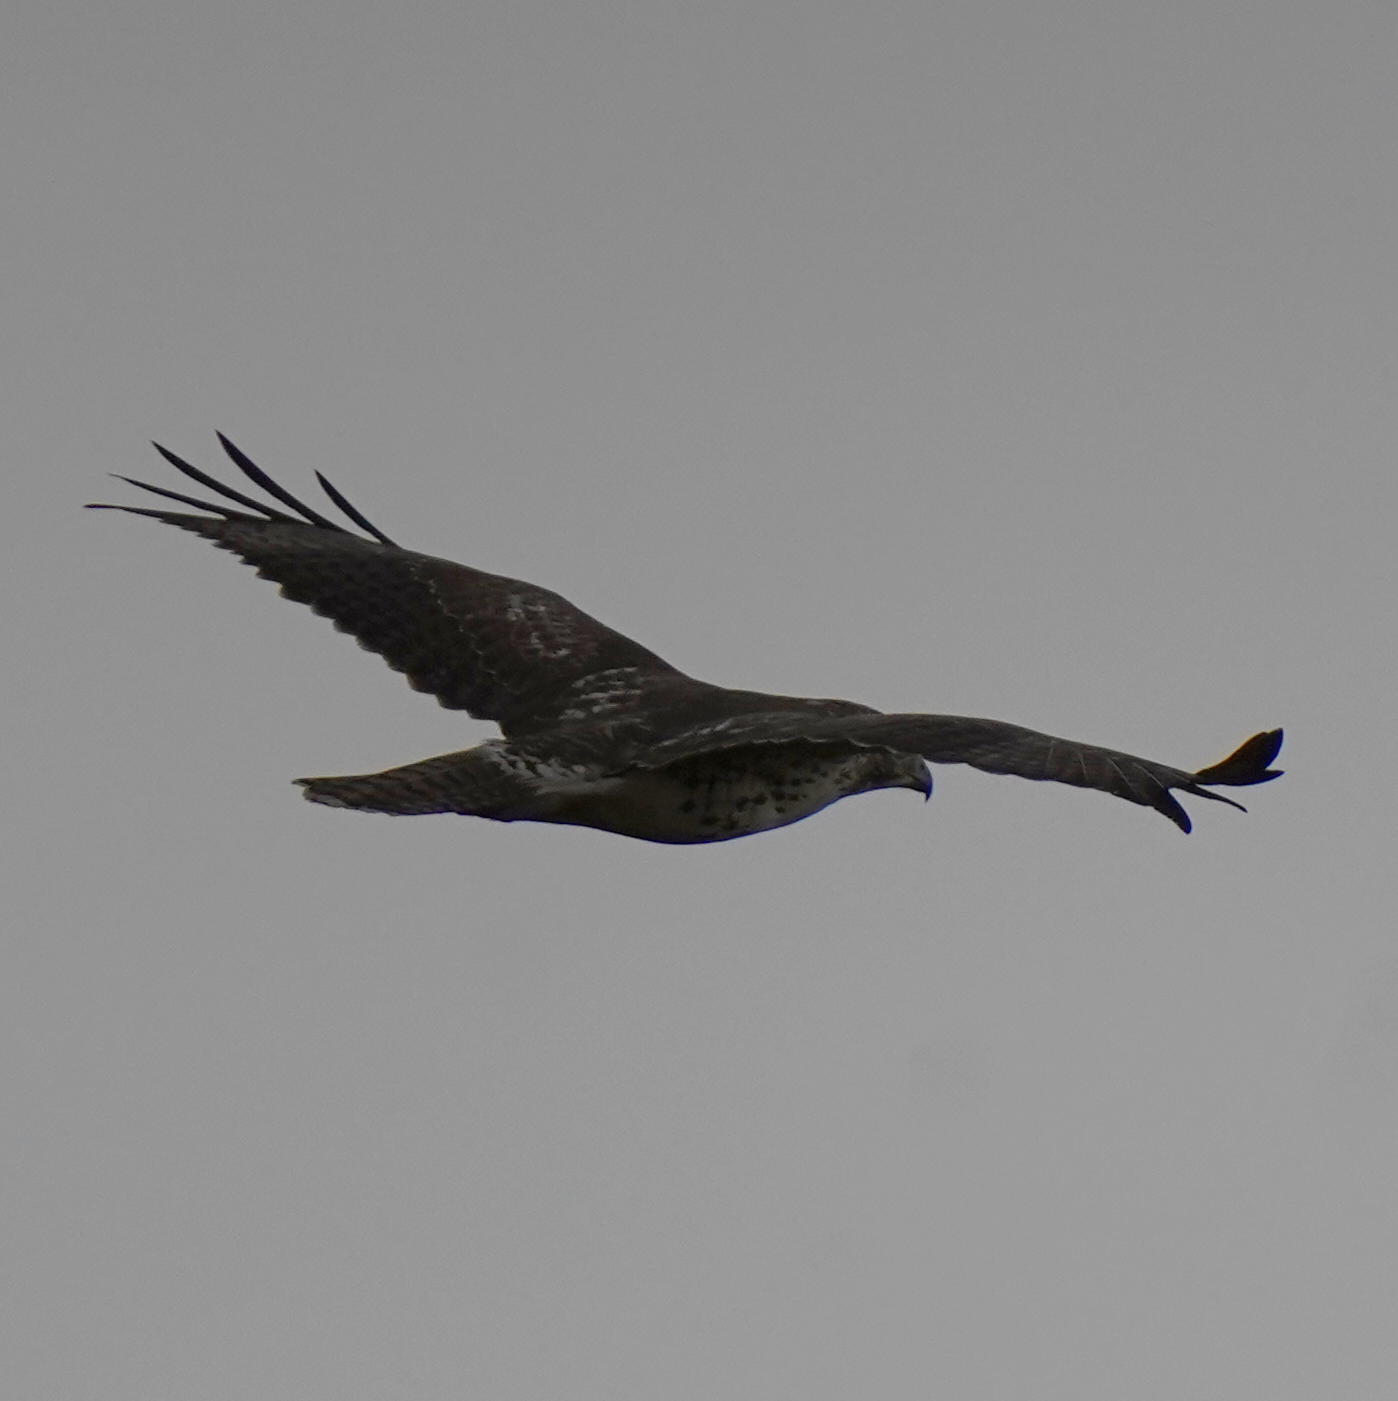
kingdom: Animalia
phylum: Chordata
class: Aves
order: Accipitriformes
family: Accipitridae
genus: Buteo
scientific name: Buteo jamaicensis
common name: Red-tailed hawk
